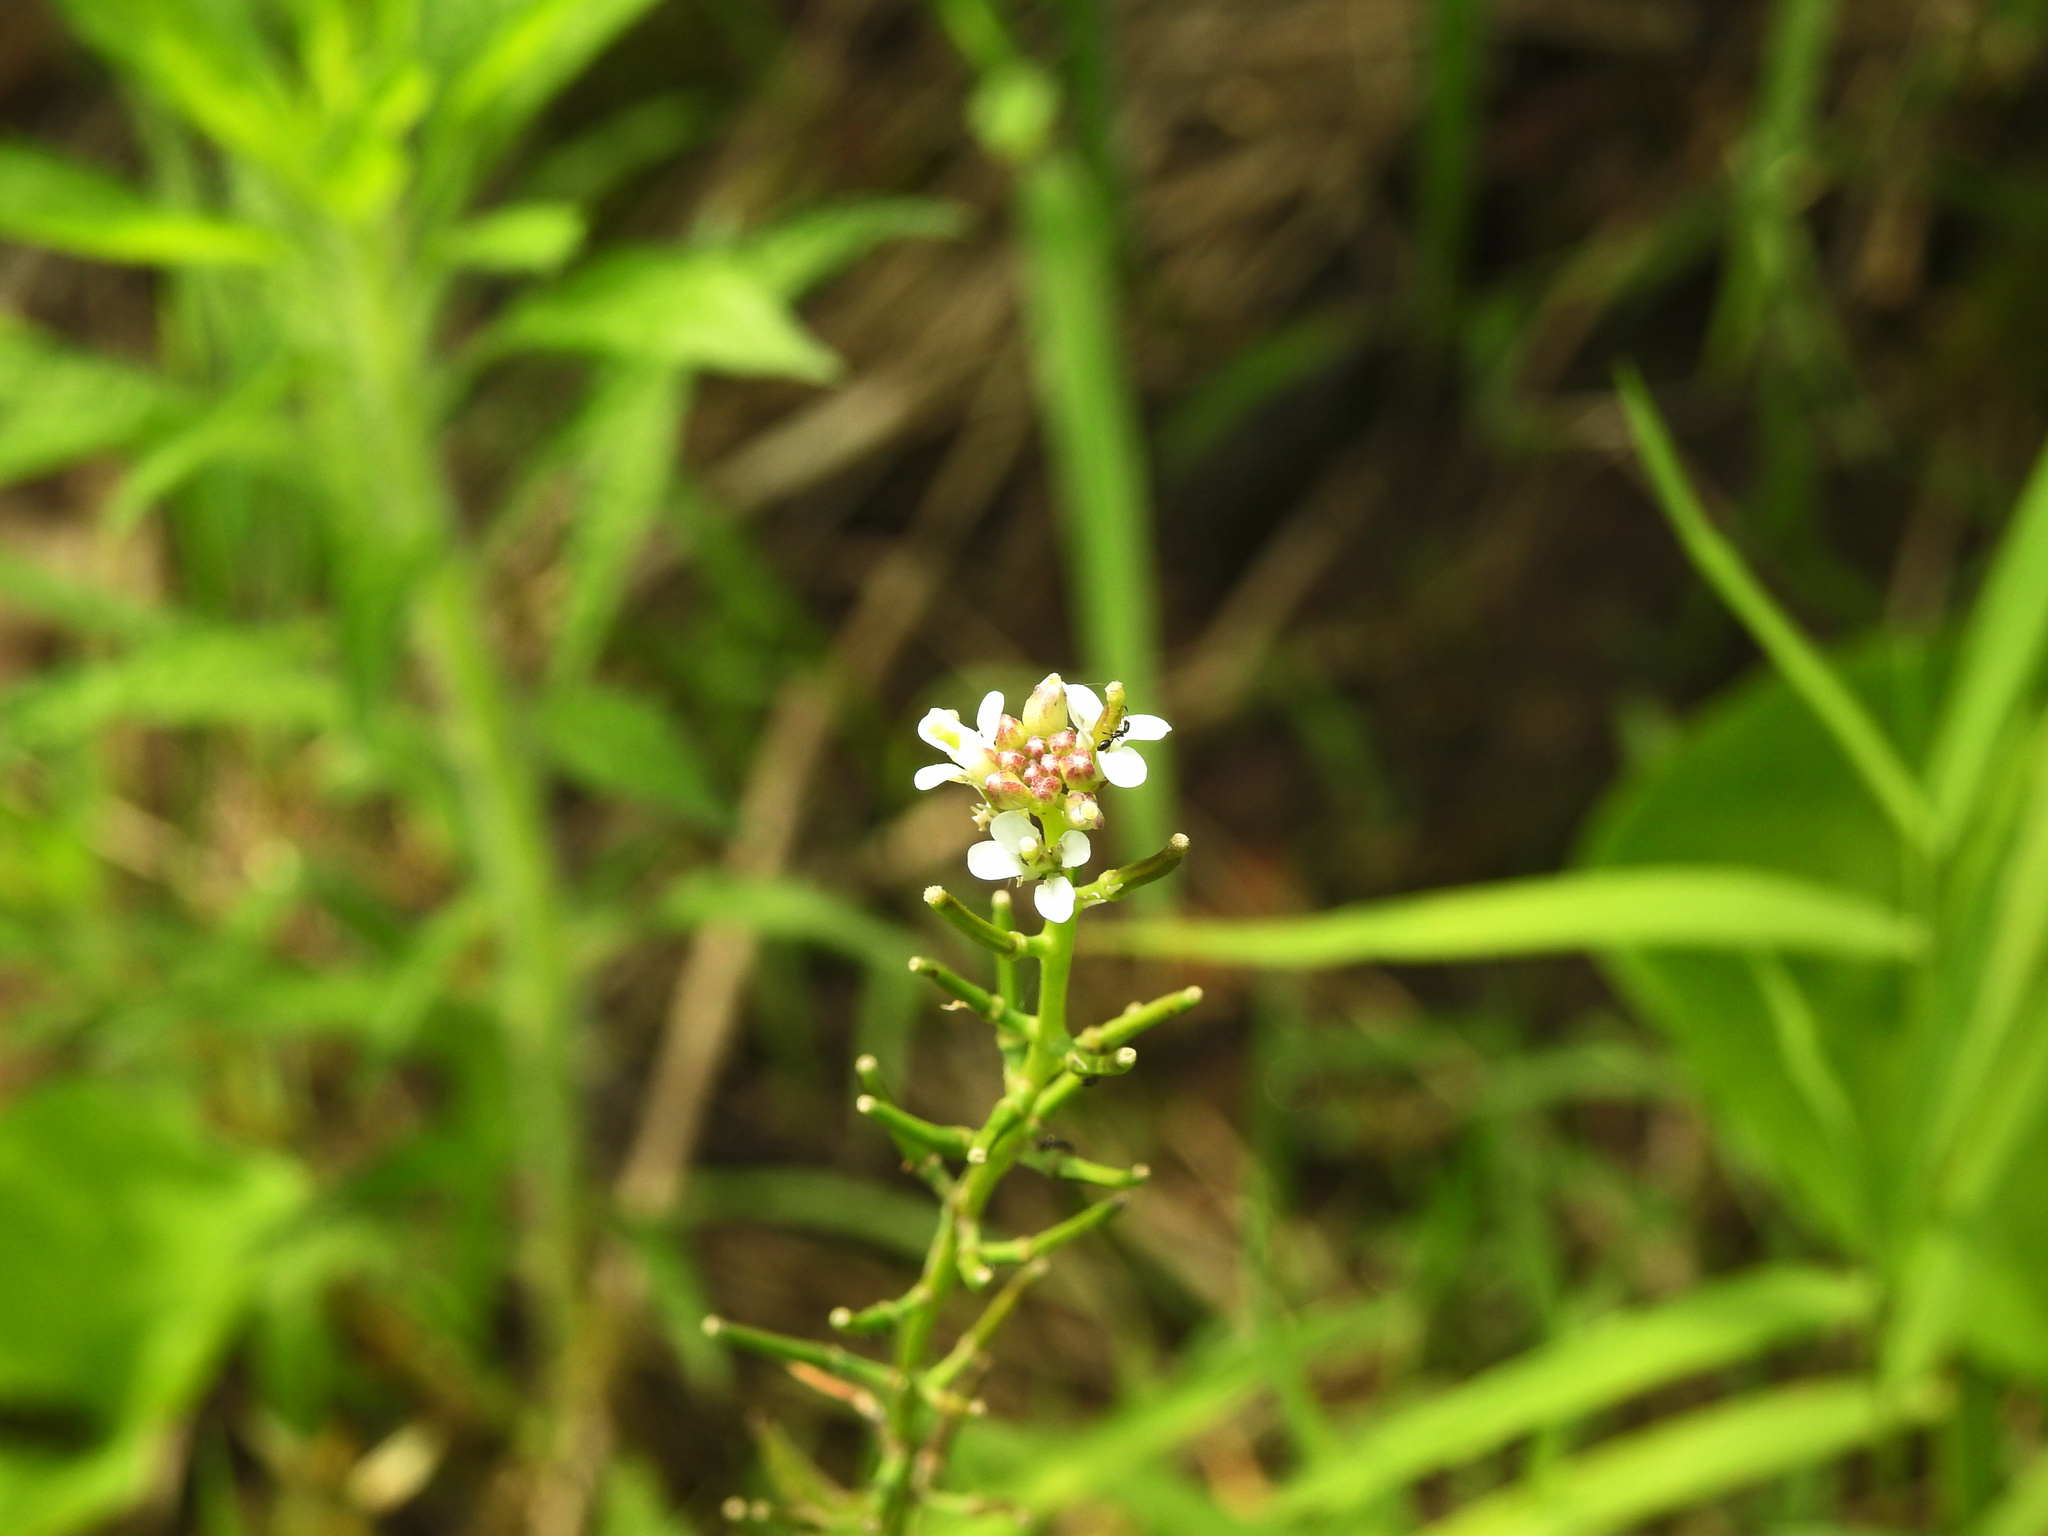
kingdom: Plantae
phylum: Tracheophyta
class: Magnoliopsida
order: Brassicales
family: Brassicaceae
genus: Alliaria
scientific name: Alliaria petiolata
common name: Garlic mustard
